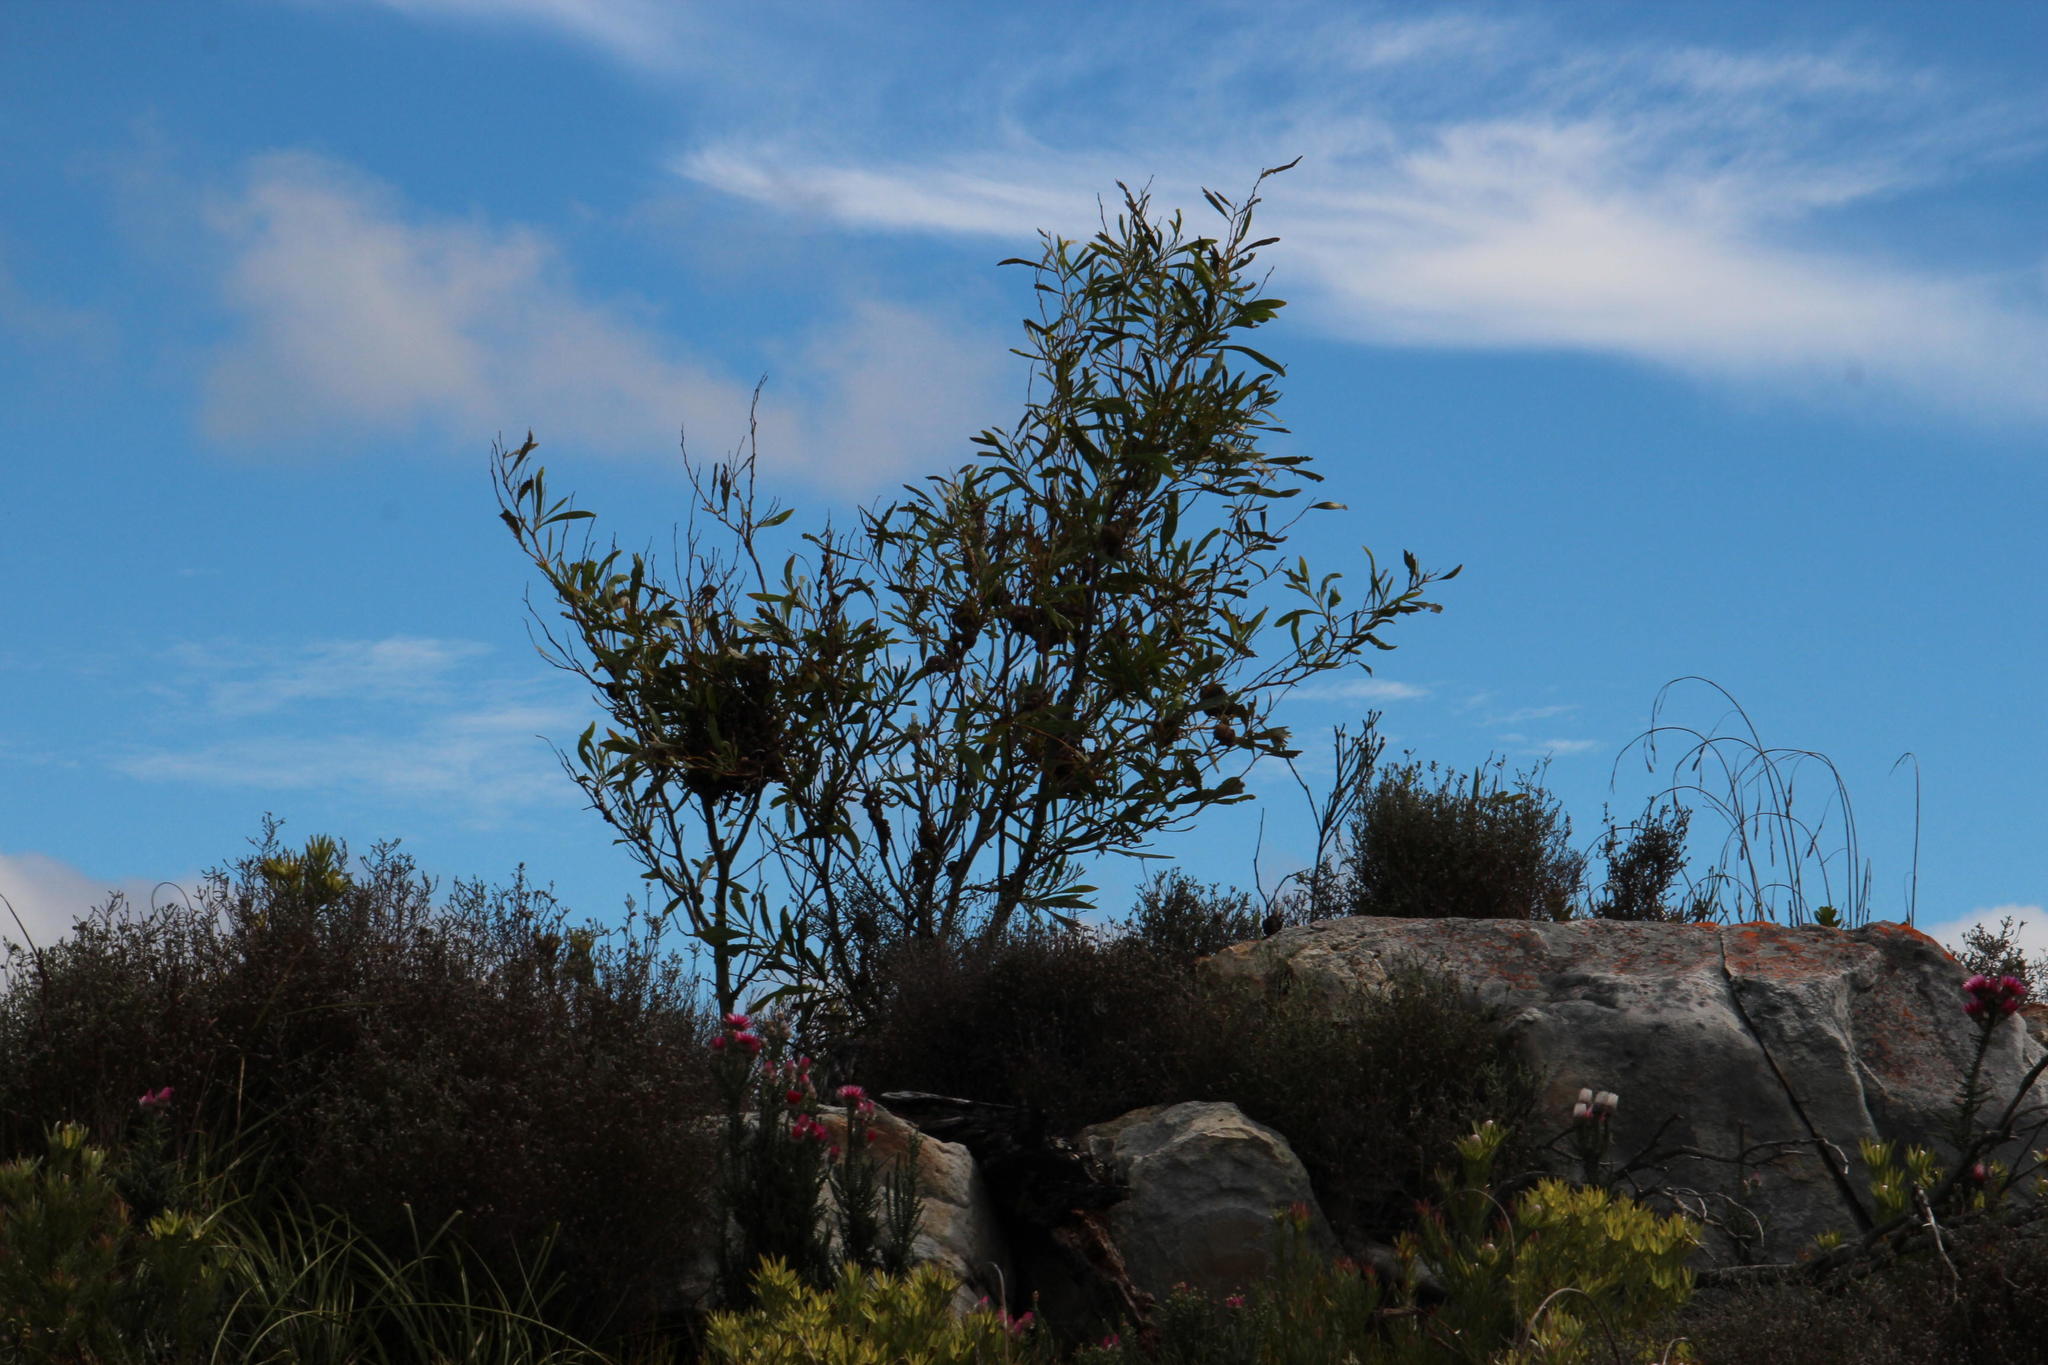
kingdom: Plantae
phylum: Tracheophyta
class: Magnoliopsida
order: Fabales
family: Fabaceae
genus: Acacia
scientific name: Acacia saligna
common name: Orange wattle
